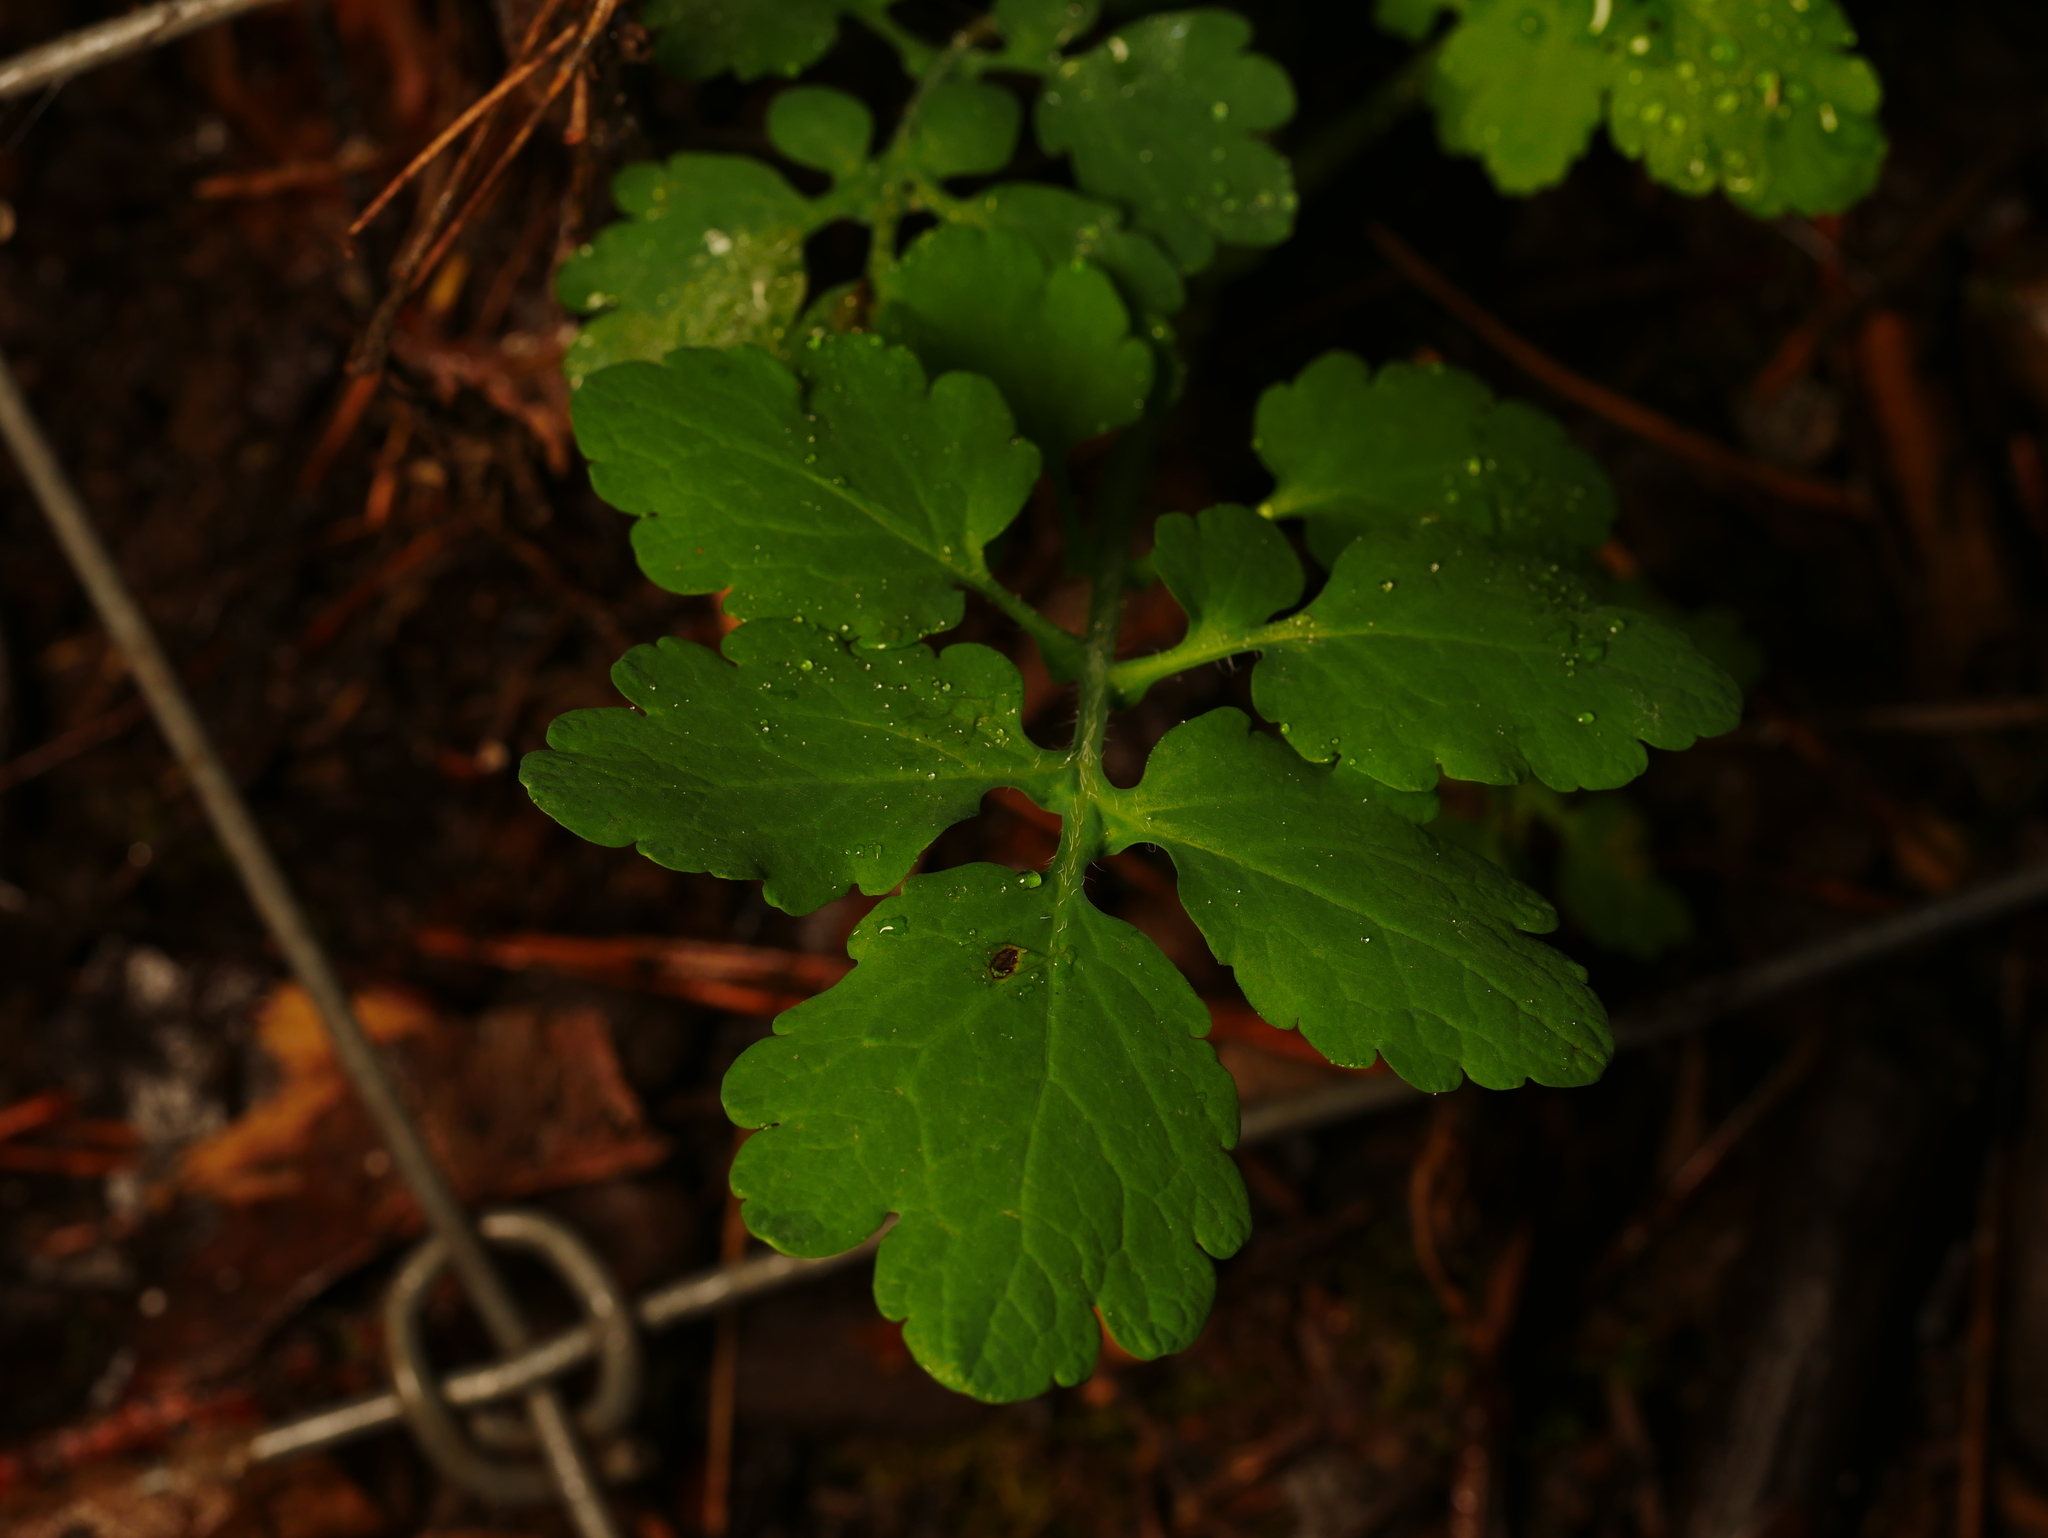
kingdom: Plantae
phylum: Tracheophyta
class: Magnoliopsida
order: Ranunculales
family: Papaveraceae
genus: Chelidonium
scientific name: Chelidonium majus
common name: Greater celandine
